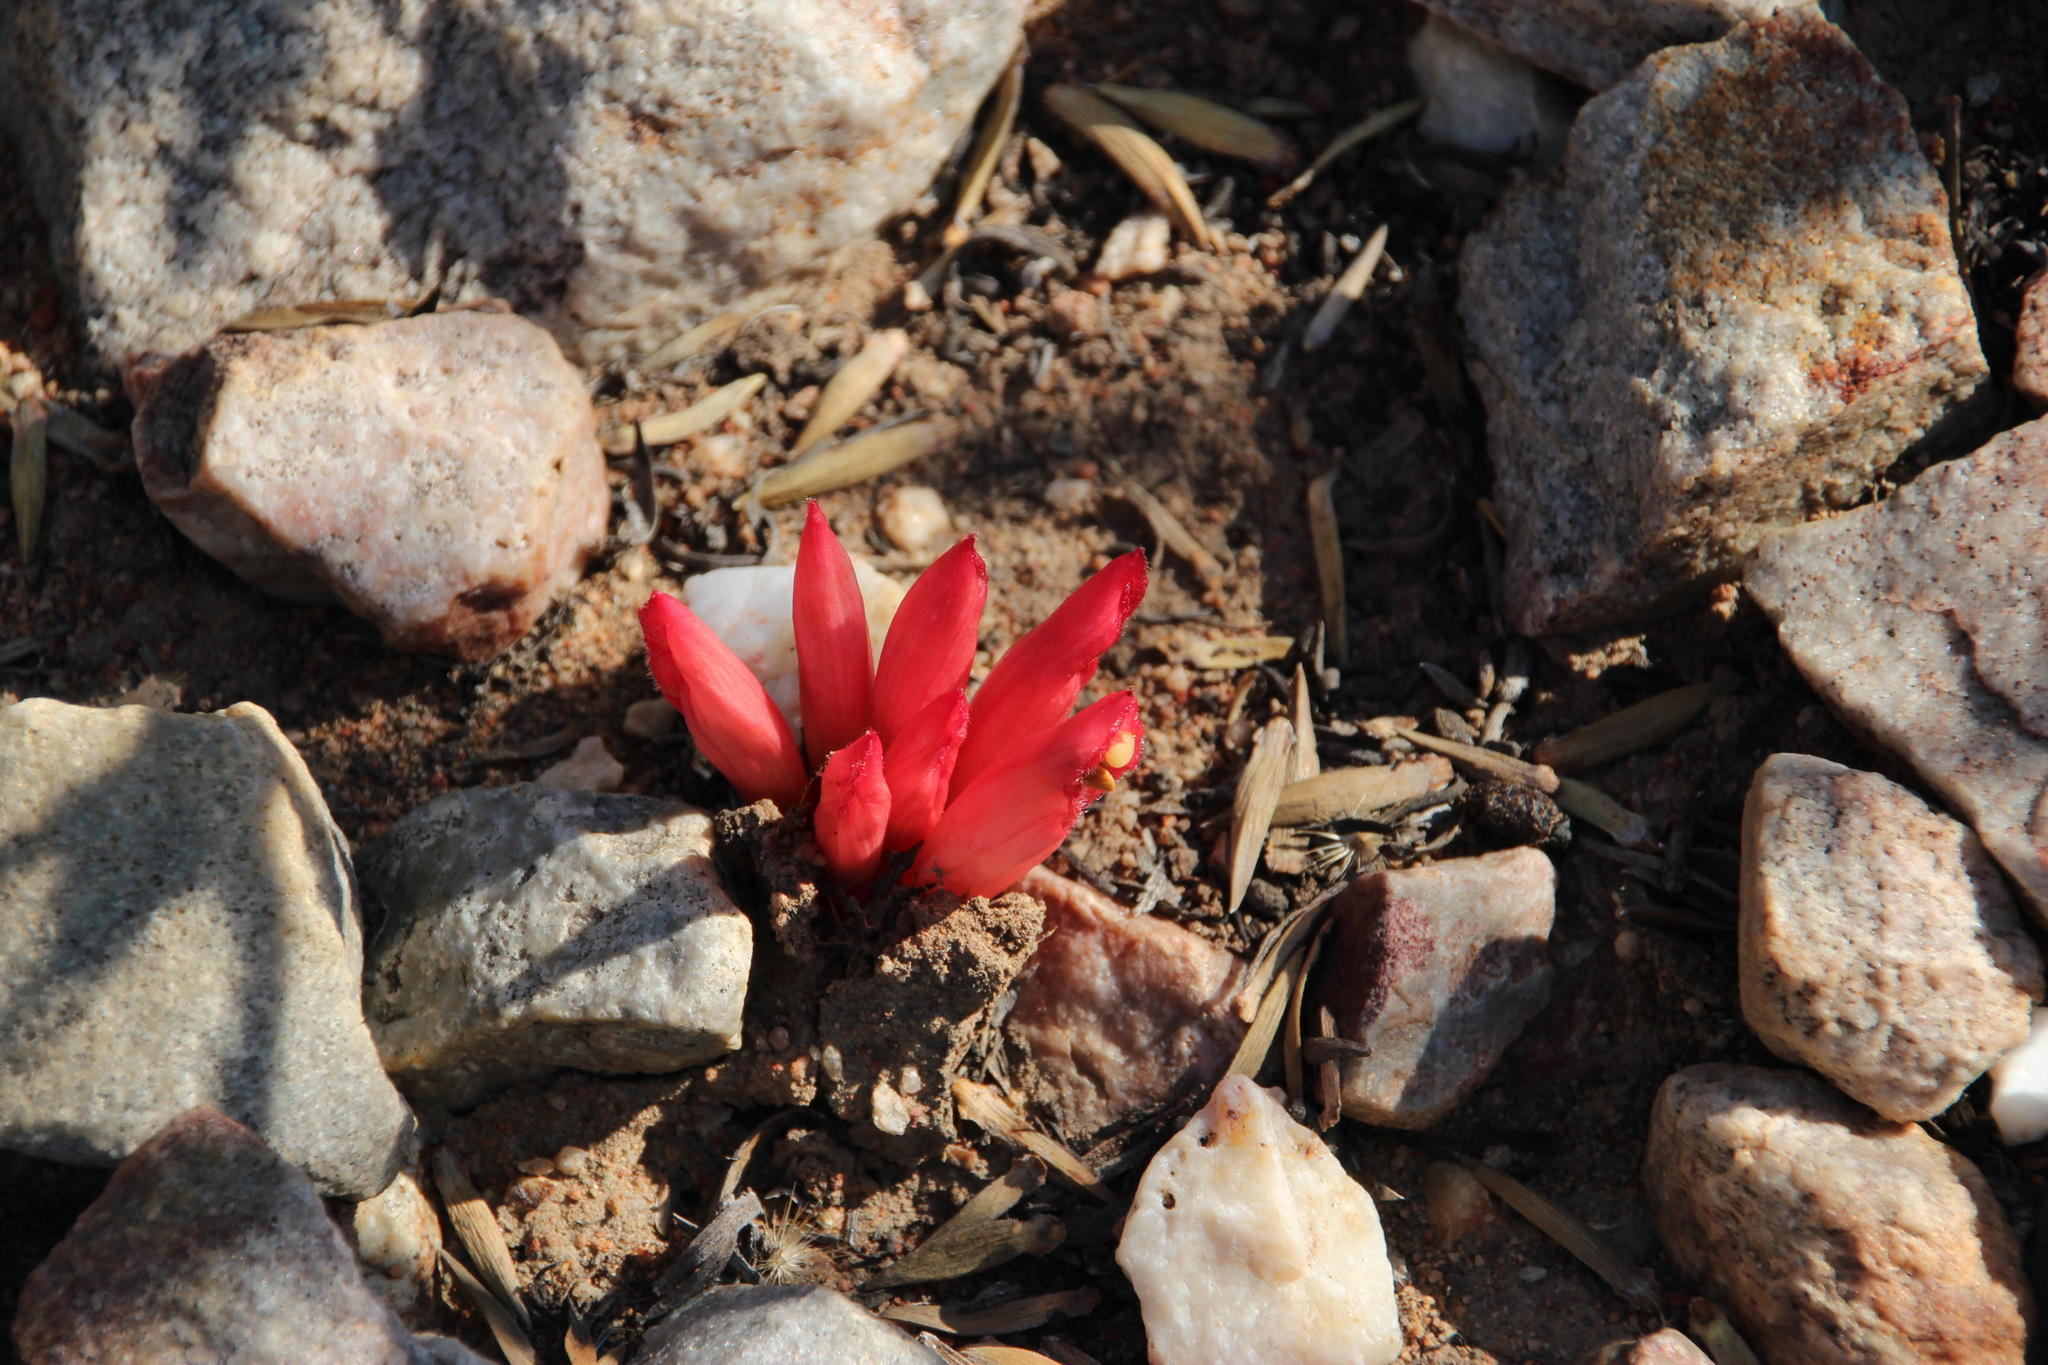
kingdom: Plantae
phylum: Tracheophyta
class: Magnoliopsida
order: Lamiales
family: Orobanchaceae
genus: Hyobanche
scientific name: Hyobanche glabrata
